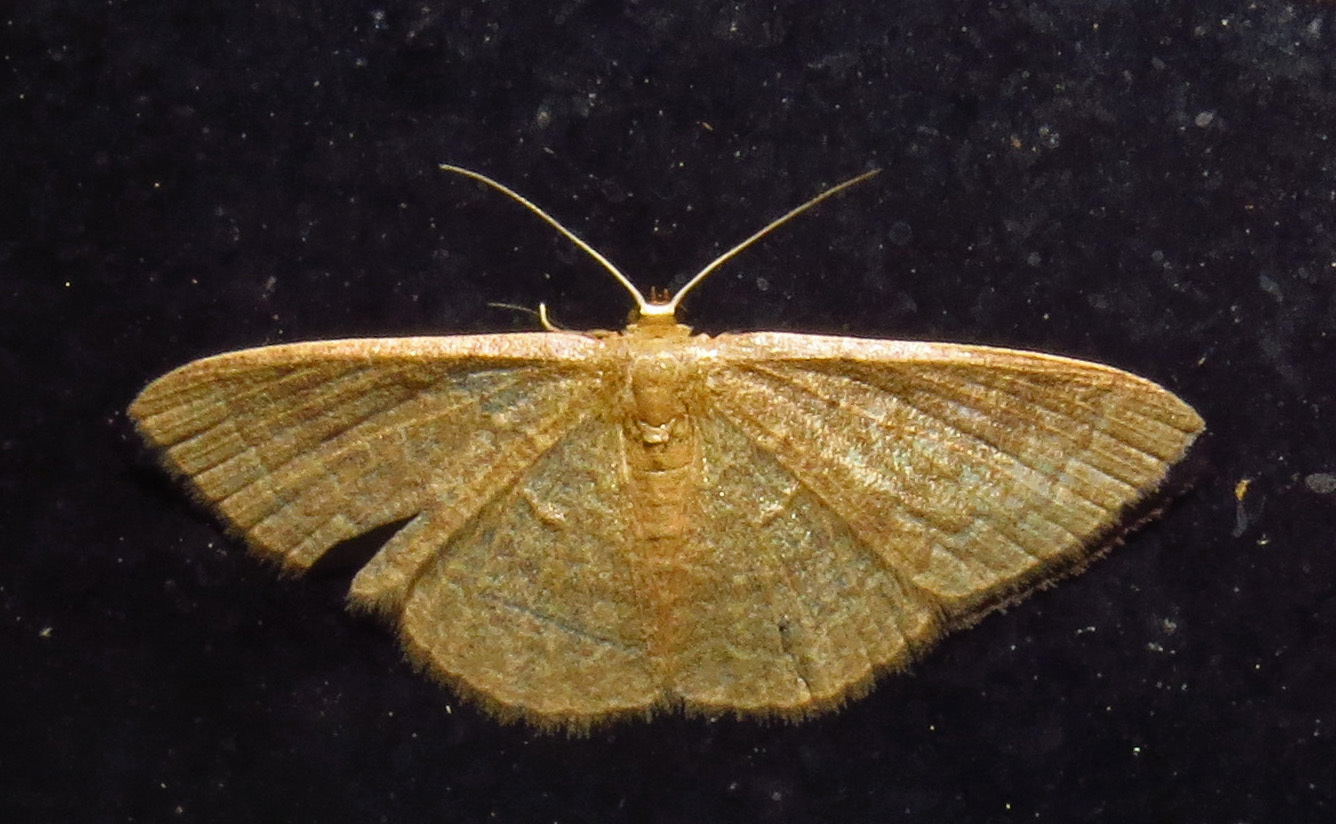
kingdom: Animalia
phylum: Arthropoda
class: Insecta
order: Lepidoptera
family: Geometridae
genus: Pleuroprucha
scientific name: Pleuroprucha insulsaria
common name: Common tan wave
